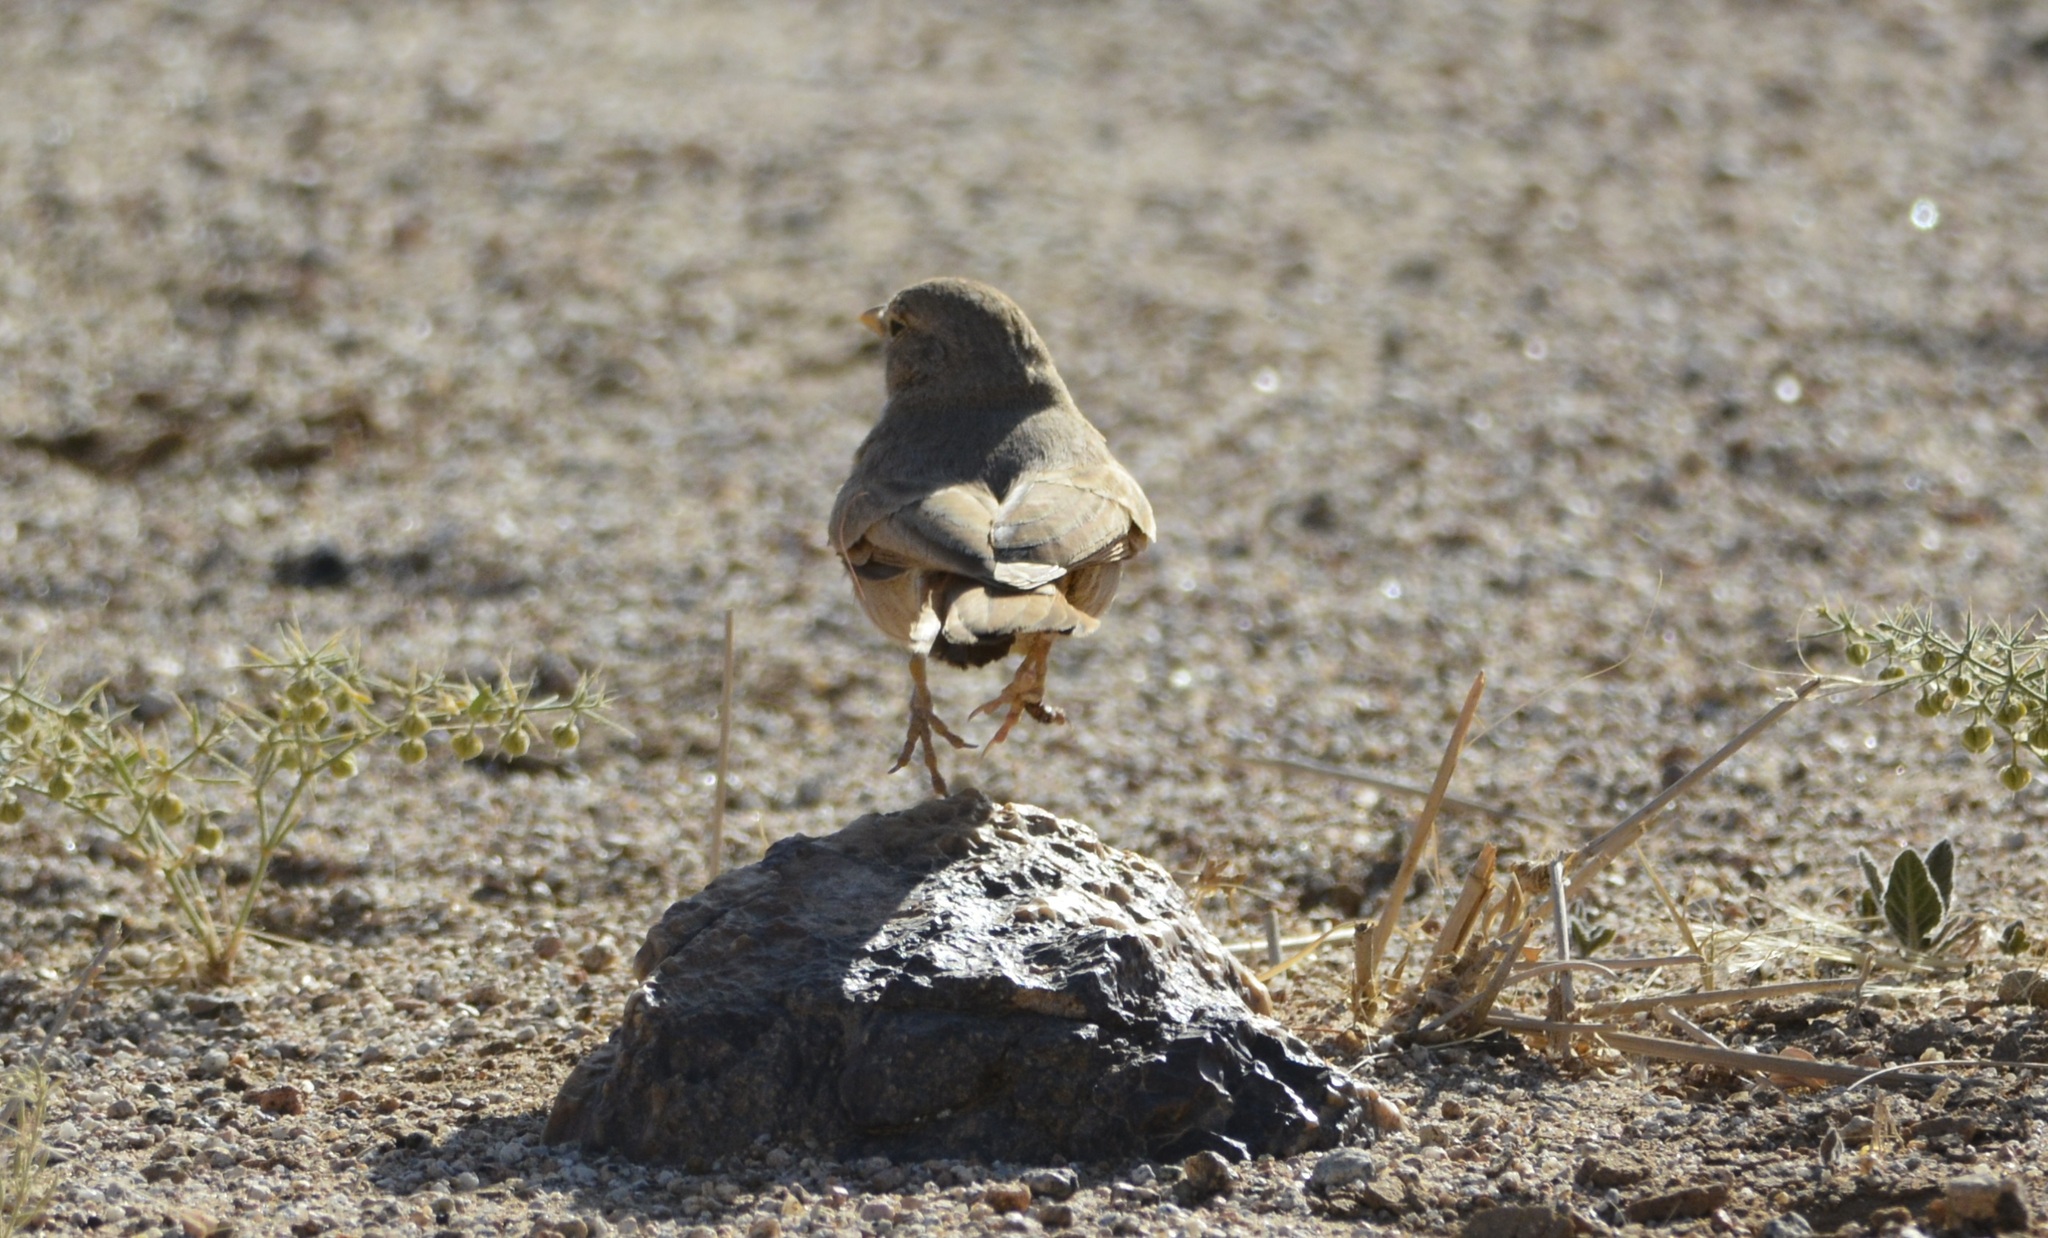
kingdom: Animalia
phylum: Chordata
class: Aves
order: Passeriformes
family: Alaudidae
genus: Ammomanes
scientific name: Ammomanes deserti
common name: Desert lark
